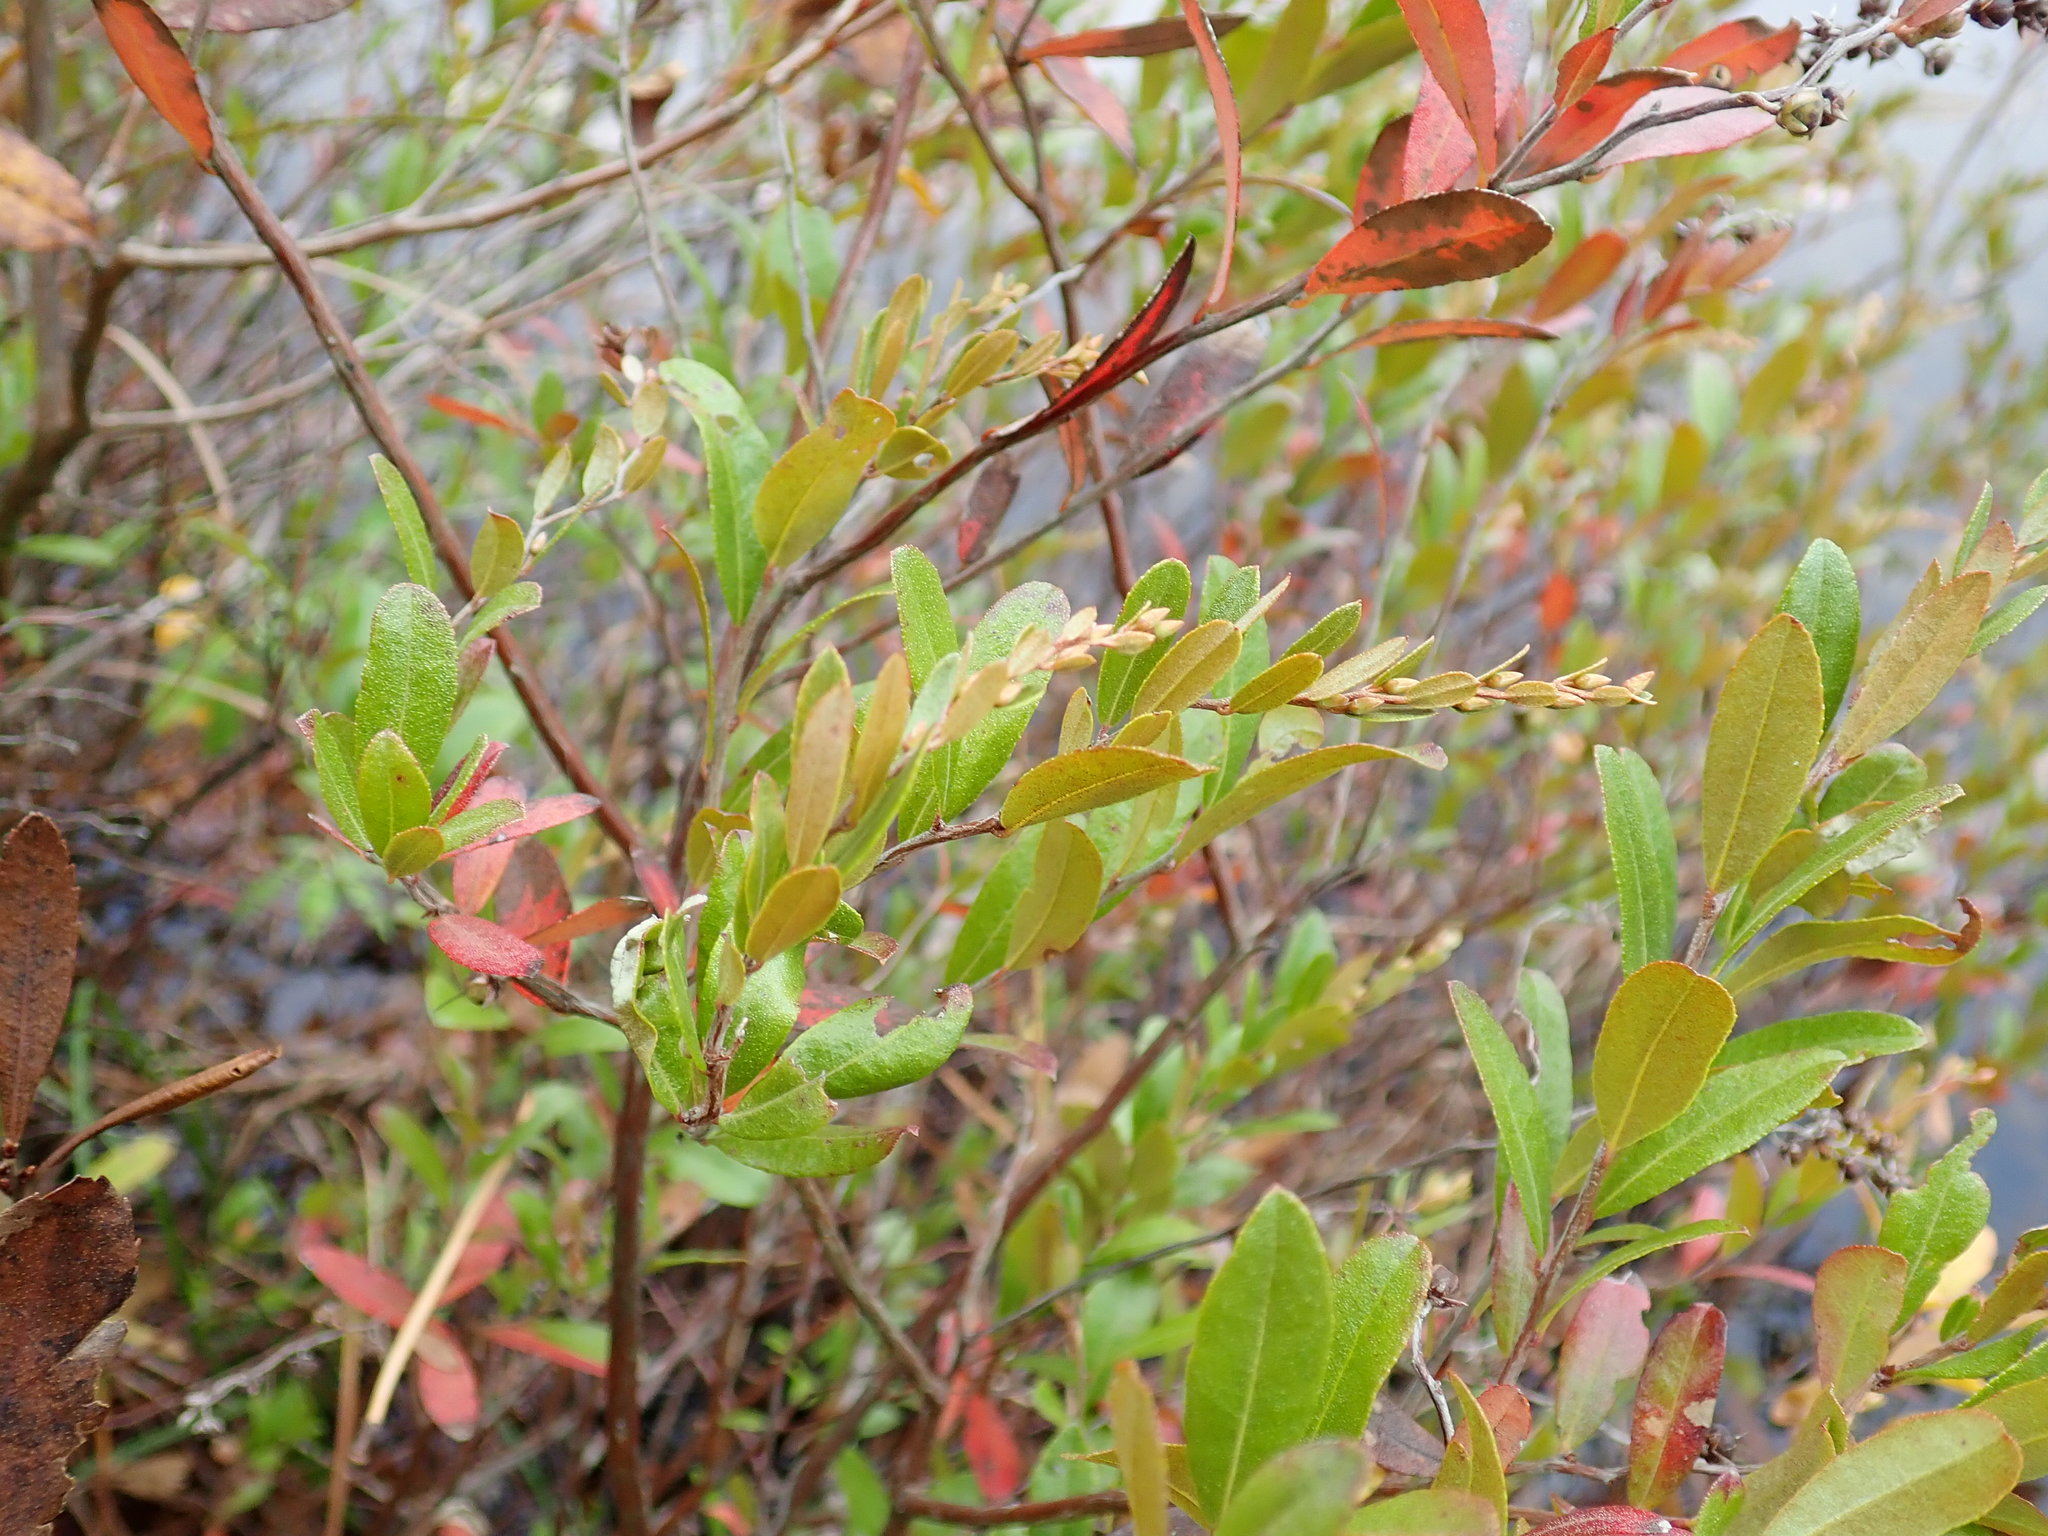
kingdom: Plantae
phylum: Tracheophyta
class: Magnoliopsida
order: Ericales
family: Ericaceae
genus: Chamaedaphne
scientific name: Chamaedaphne calyculata
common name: Leatherleaf
